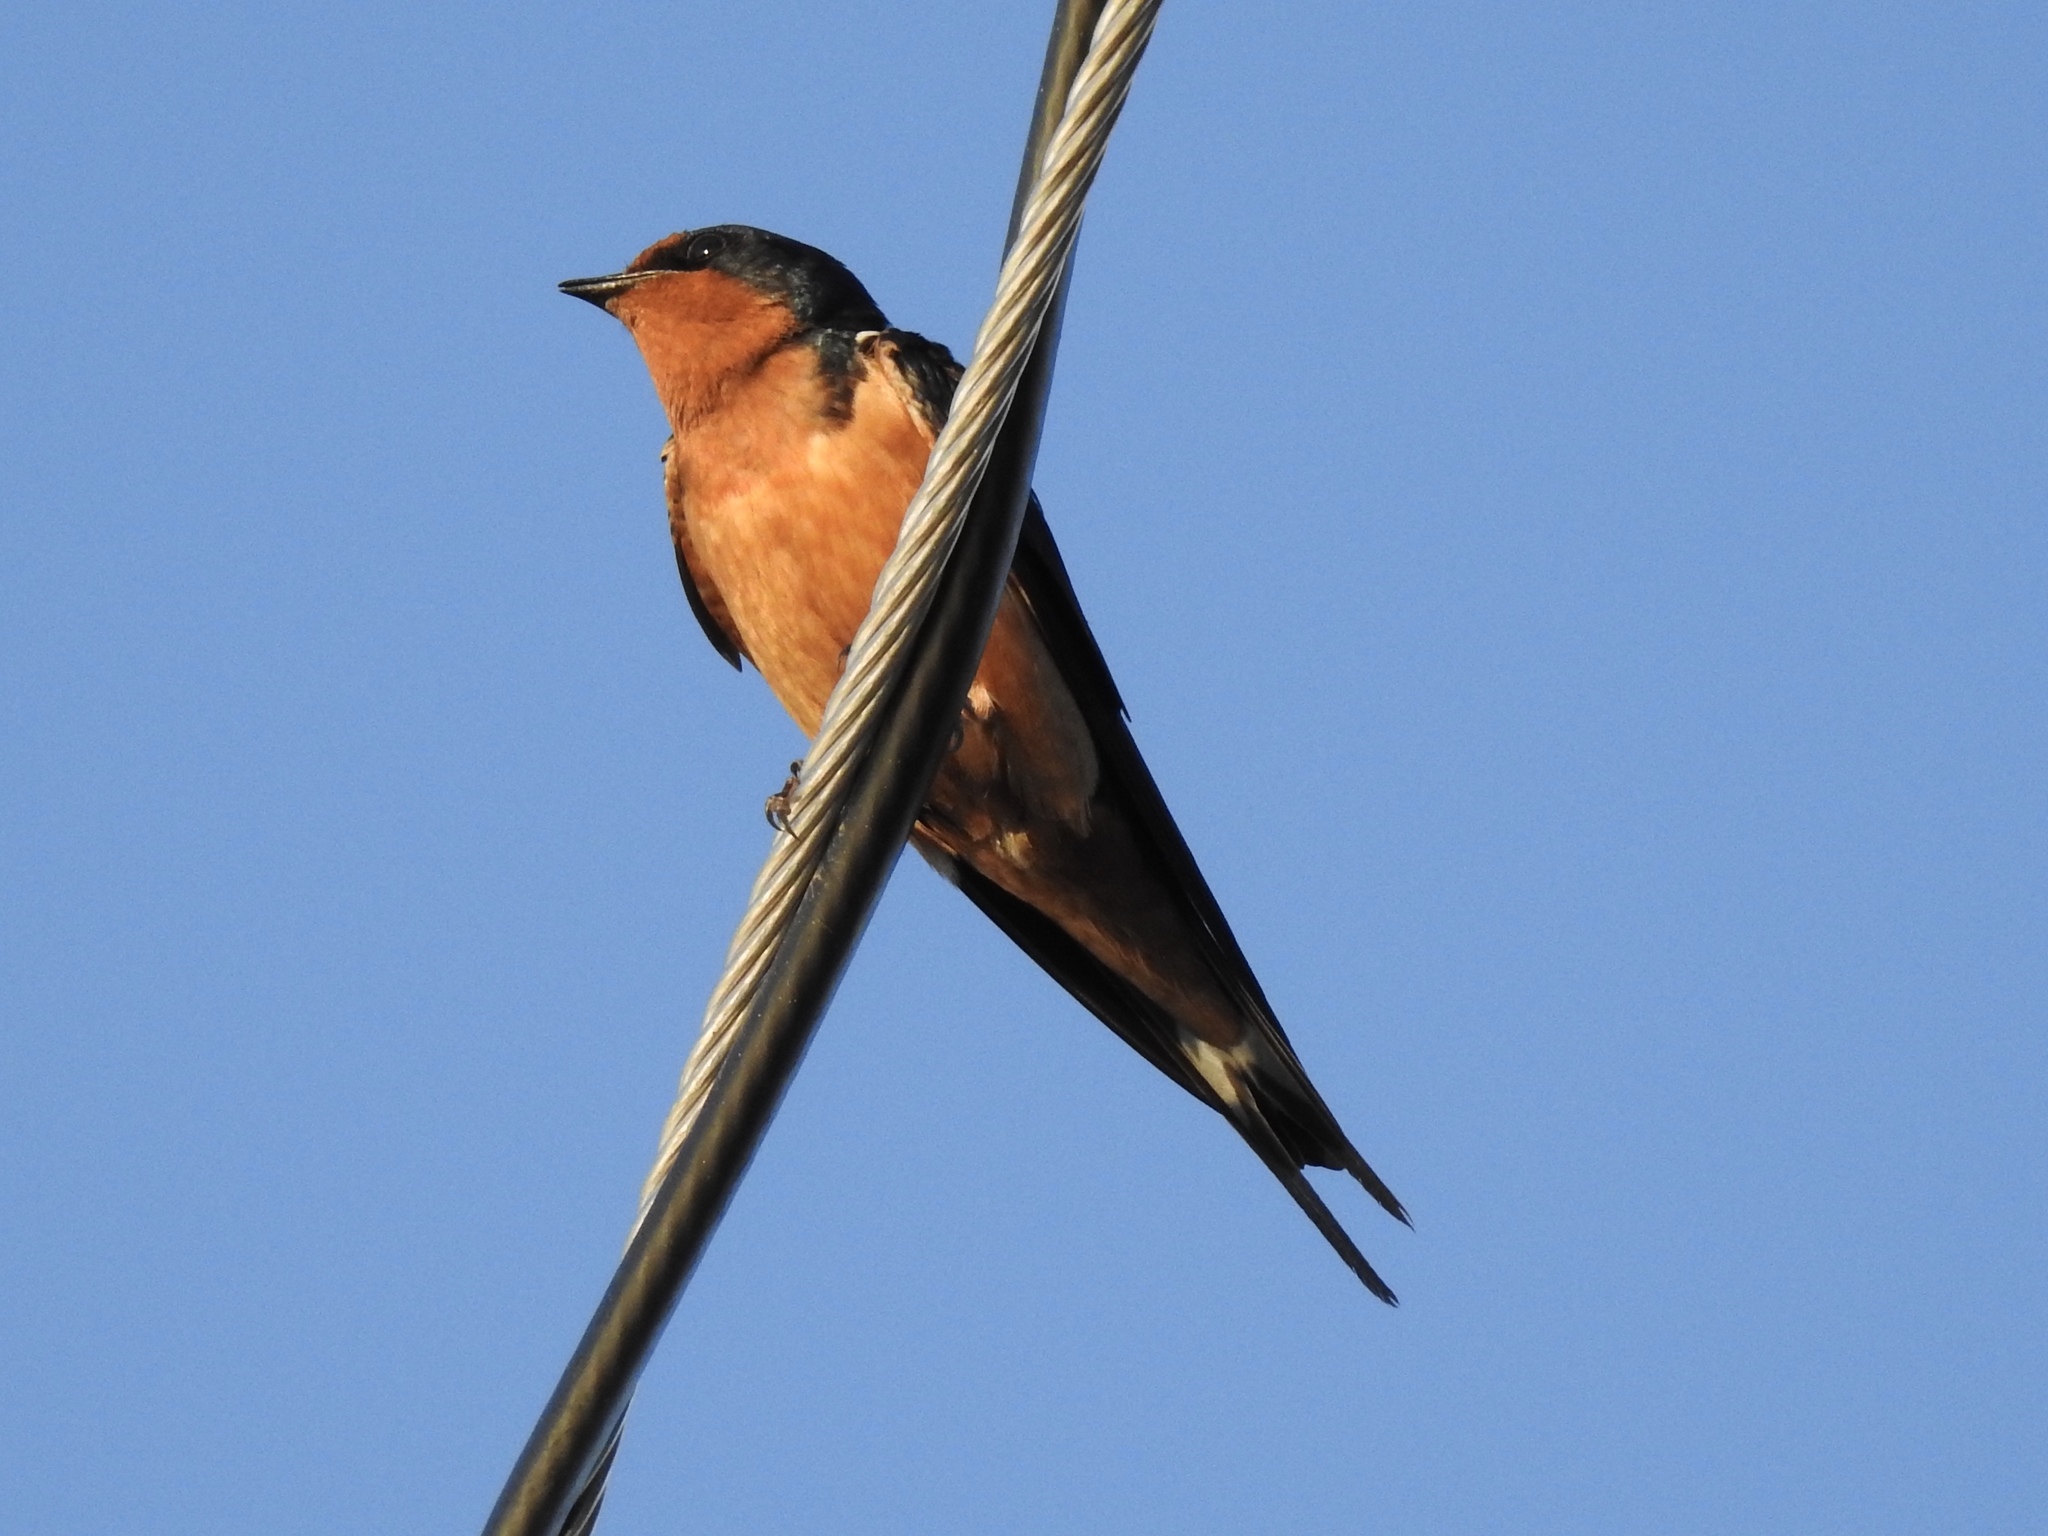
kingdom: Animalia
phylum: Chordata
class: Aves
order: Passeriformes
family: Hirundinidae
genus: Hirundo
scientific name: Hirundo rustica
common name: Barn swallow
